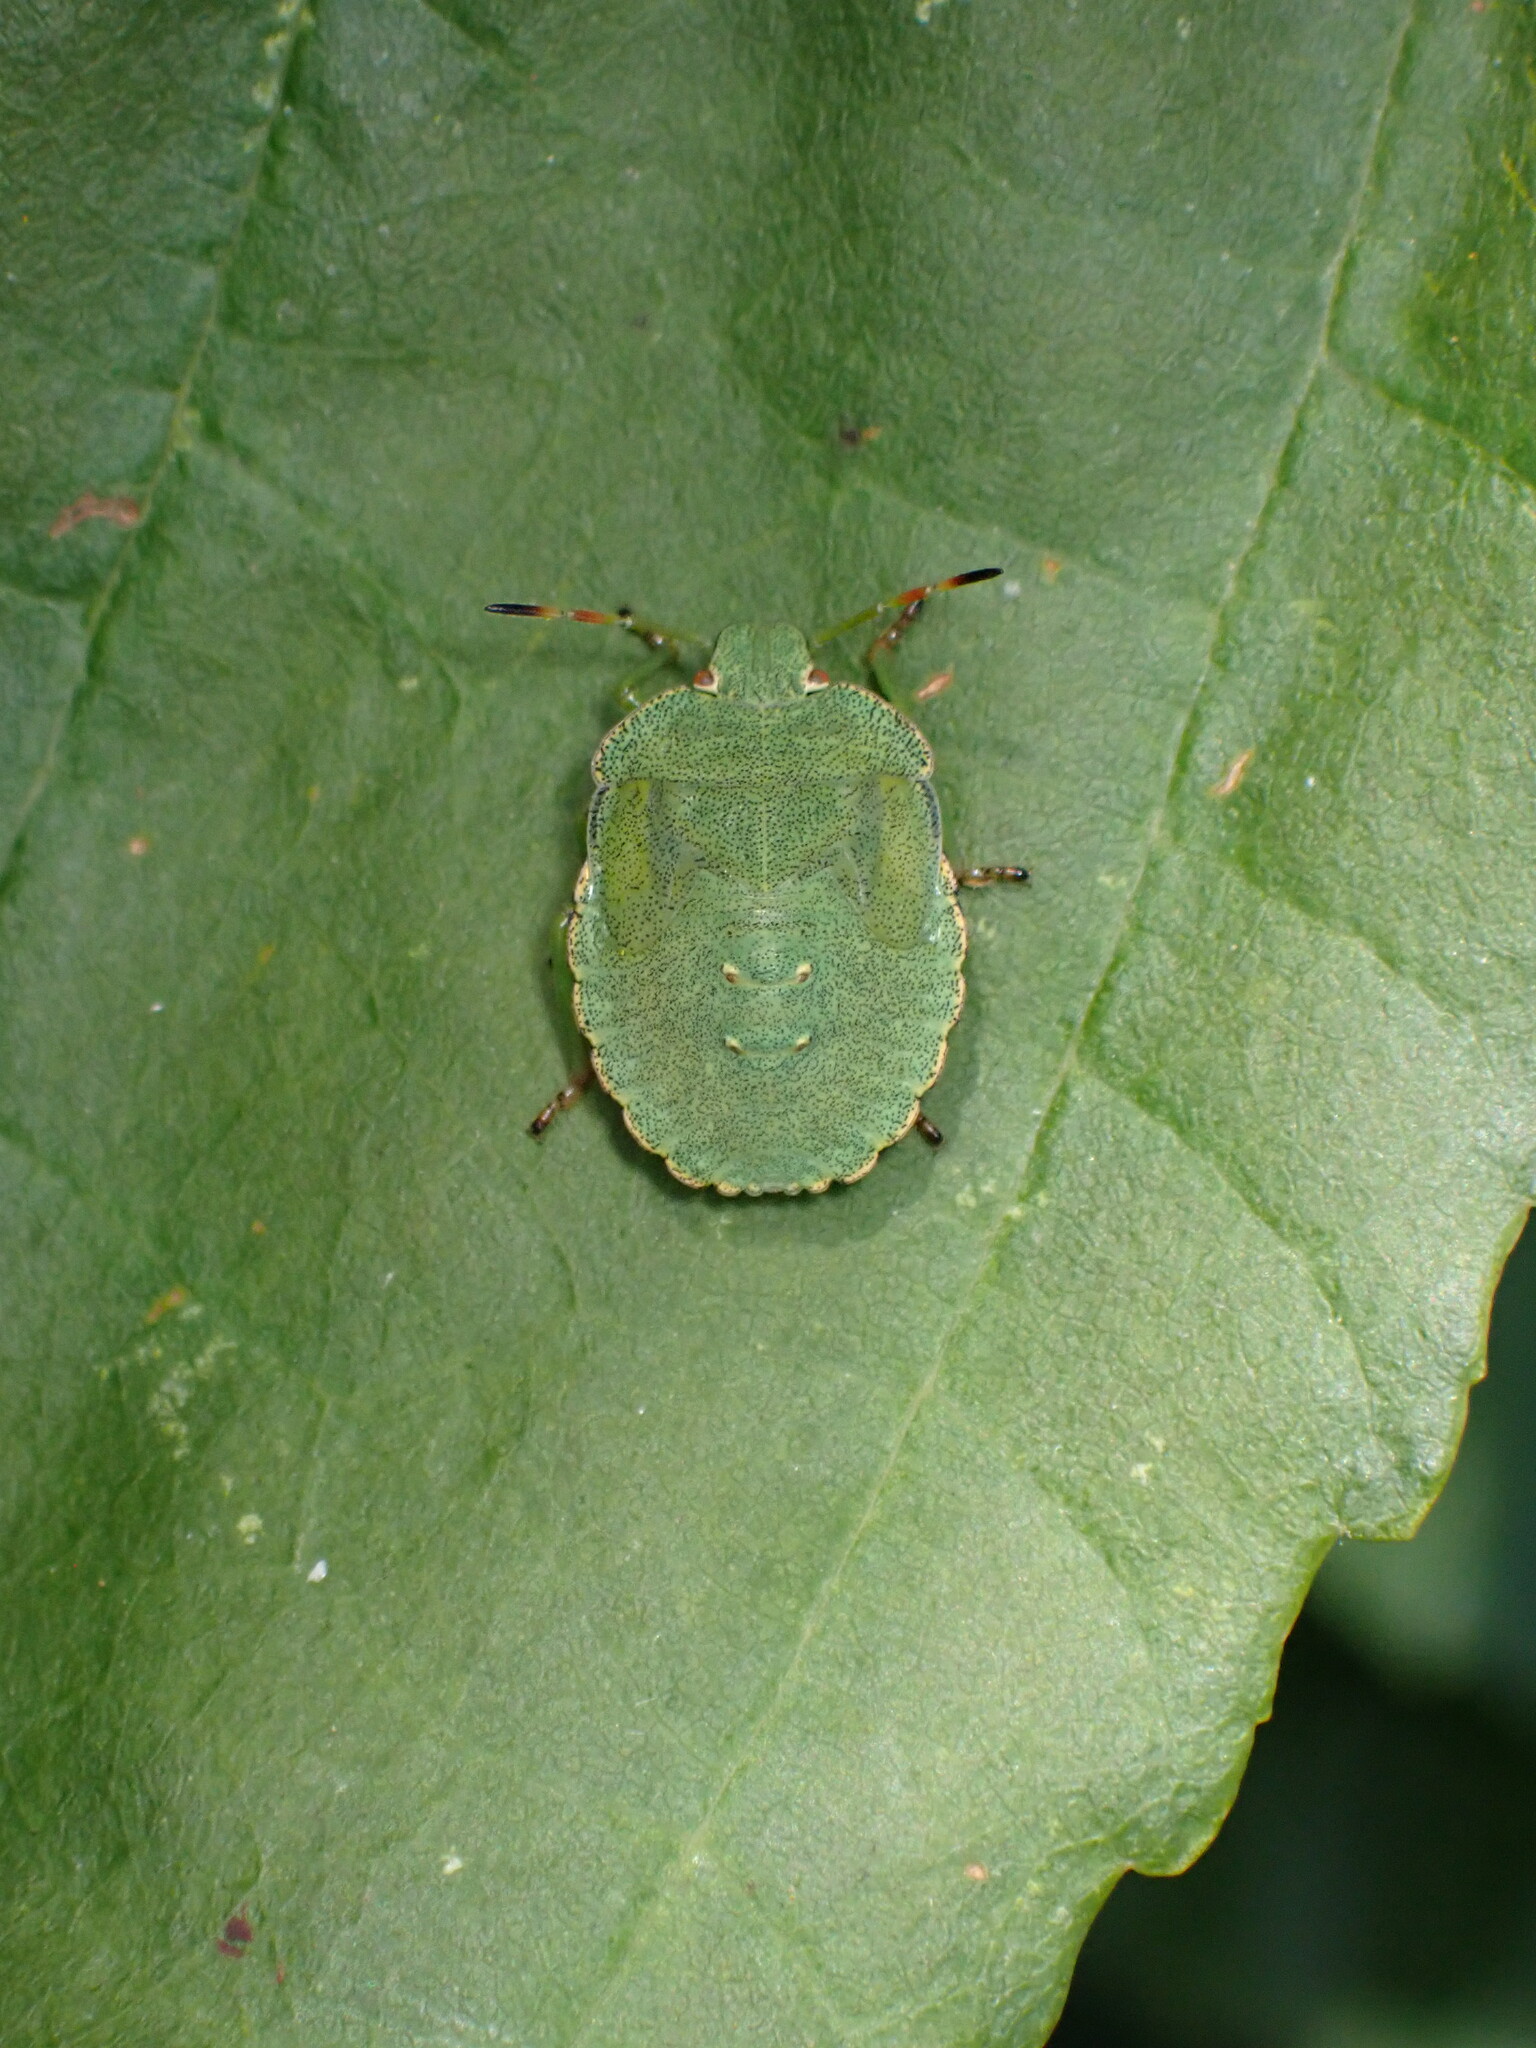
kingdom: Animalia
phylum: Arthropoda
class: Insecta
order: Hemiptera
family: Pentatomidae
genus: Palomena
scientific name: Palomena prasina
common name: Green shieldbug
